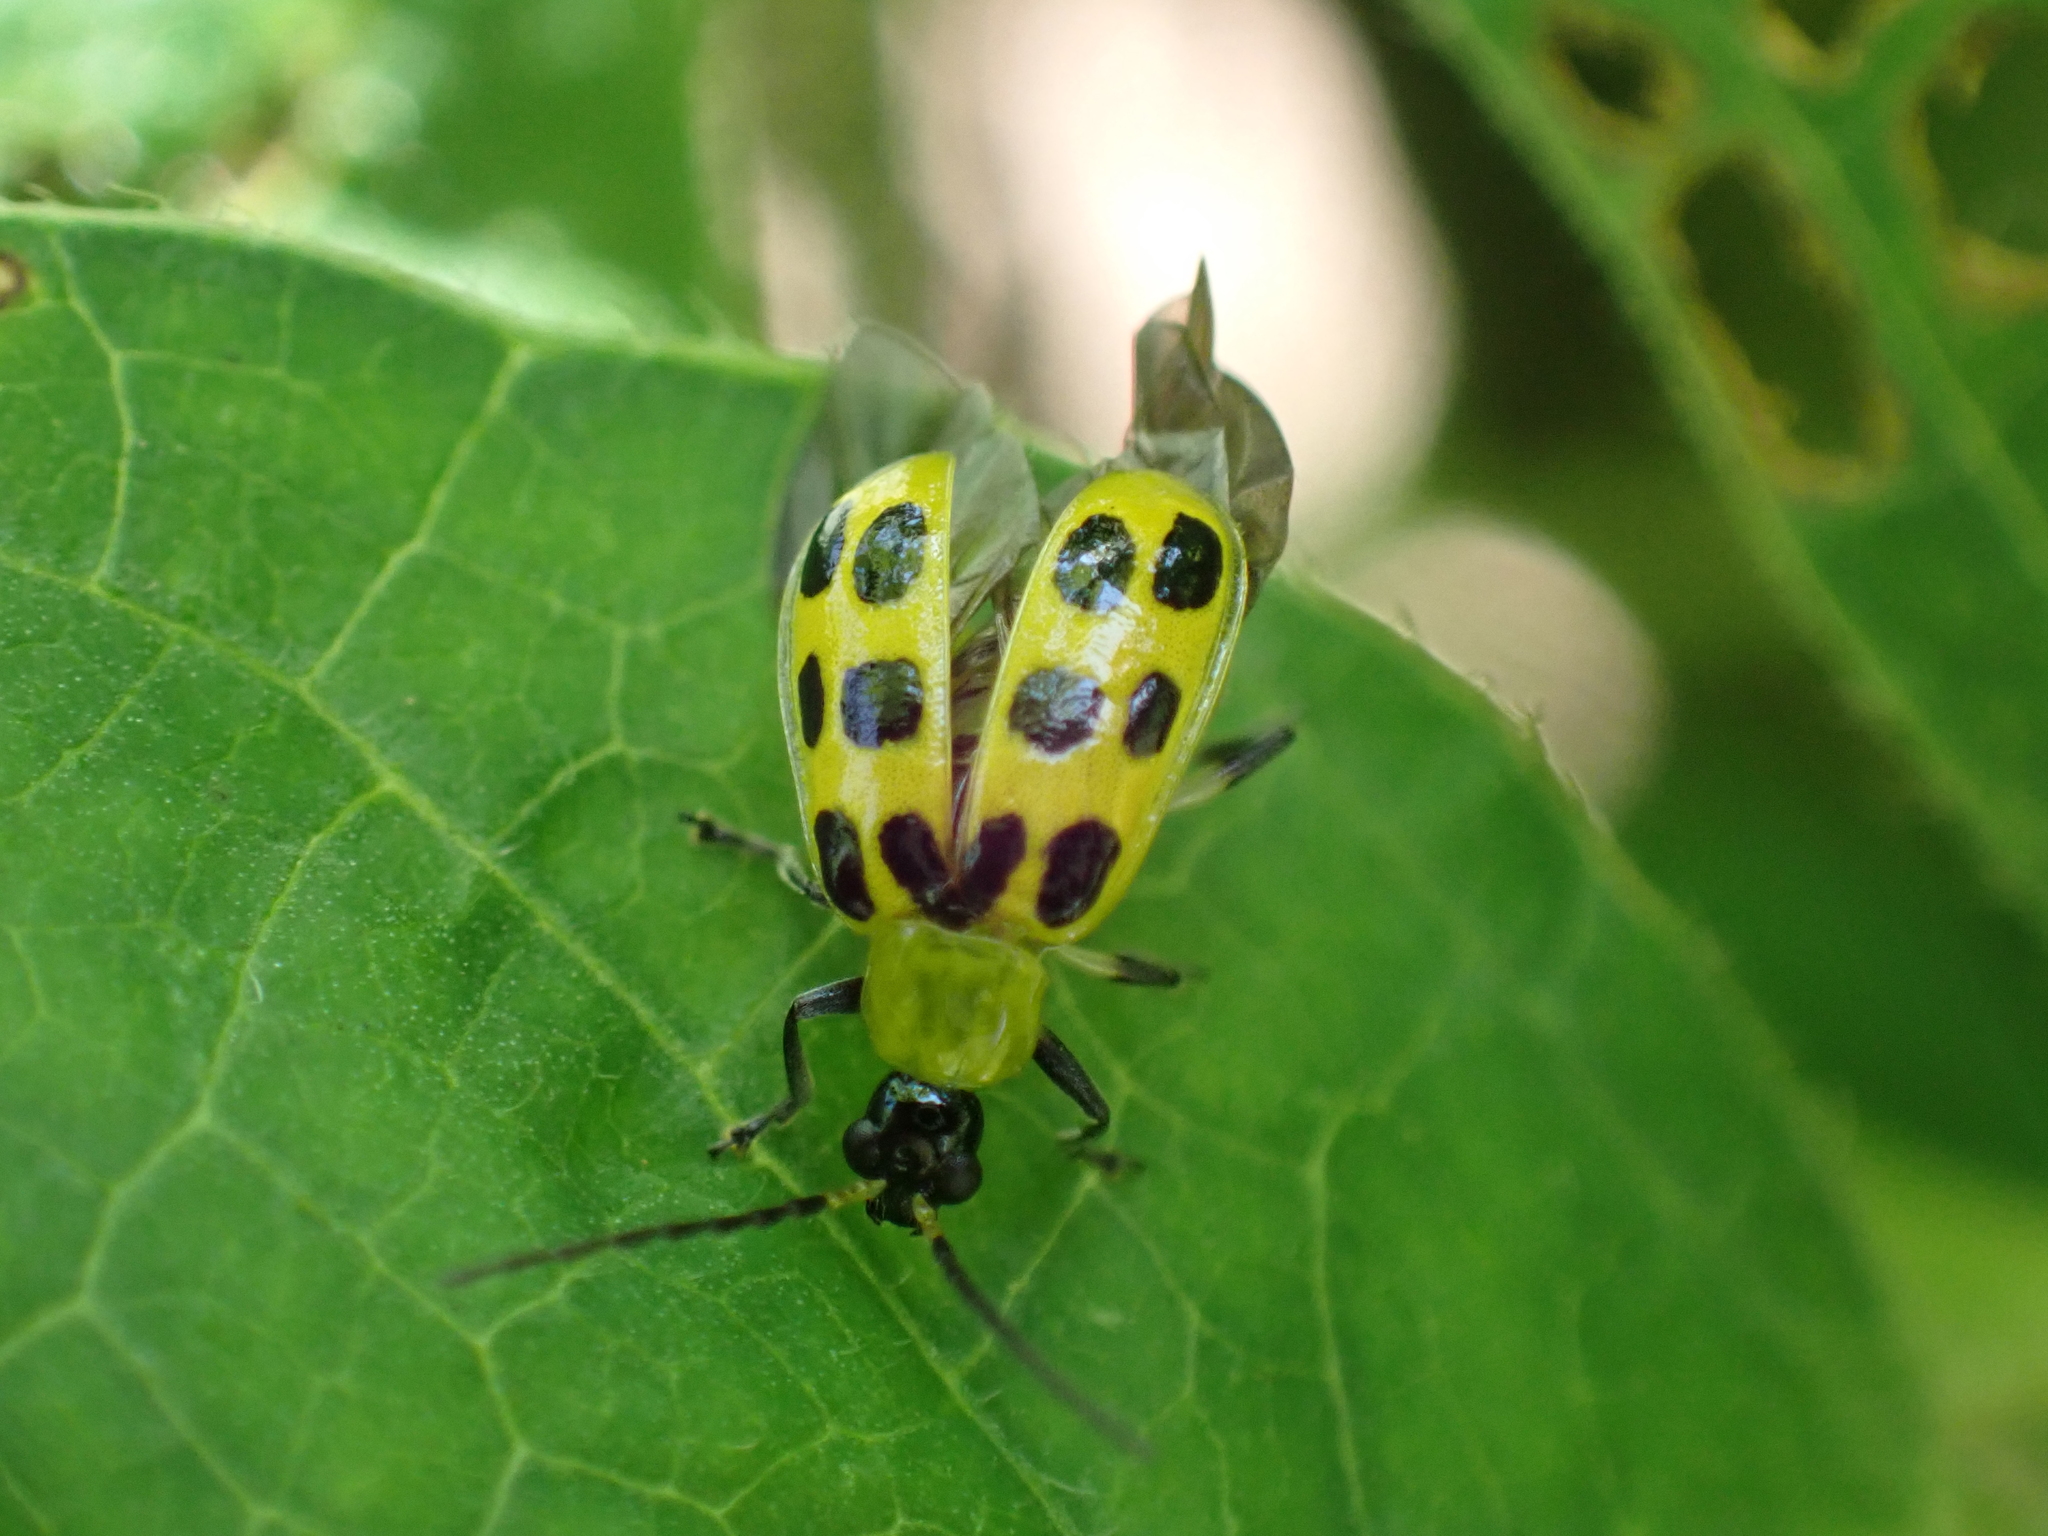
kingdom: Animalia
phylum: Arthropoda
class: Insecta
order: Coleoptera
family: Chrysomelidae
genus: Diabrotica
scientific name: Diabrotica undecimpunctata
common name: Spotted cucumber beetle
